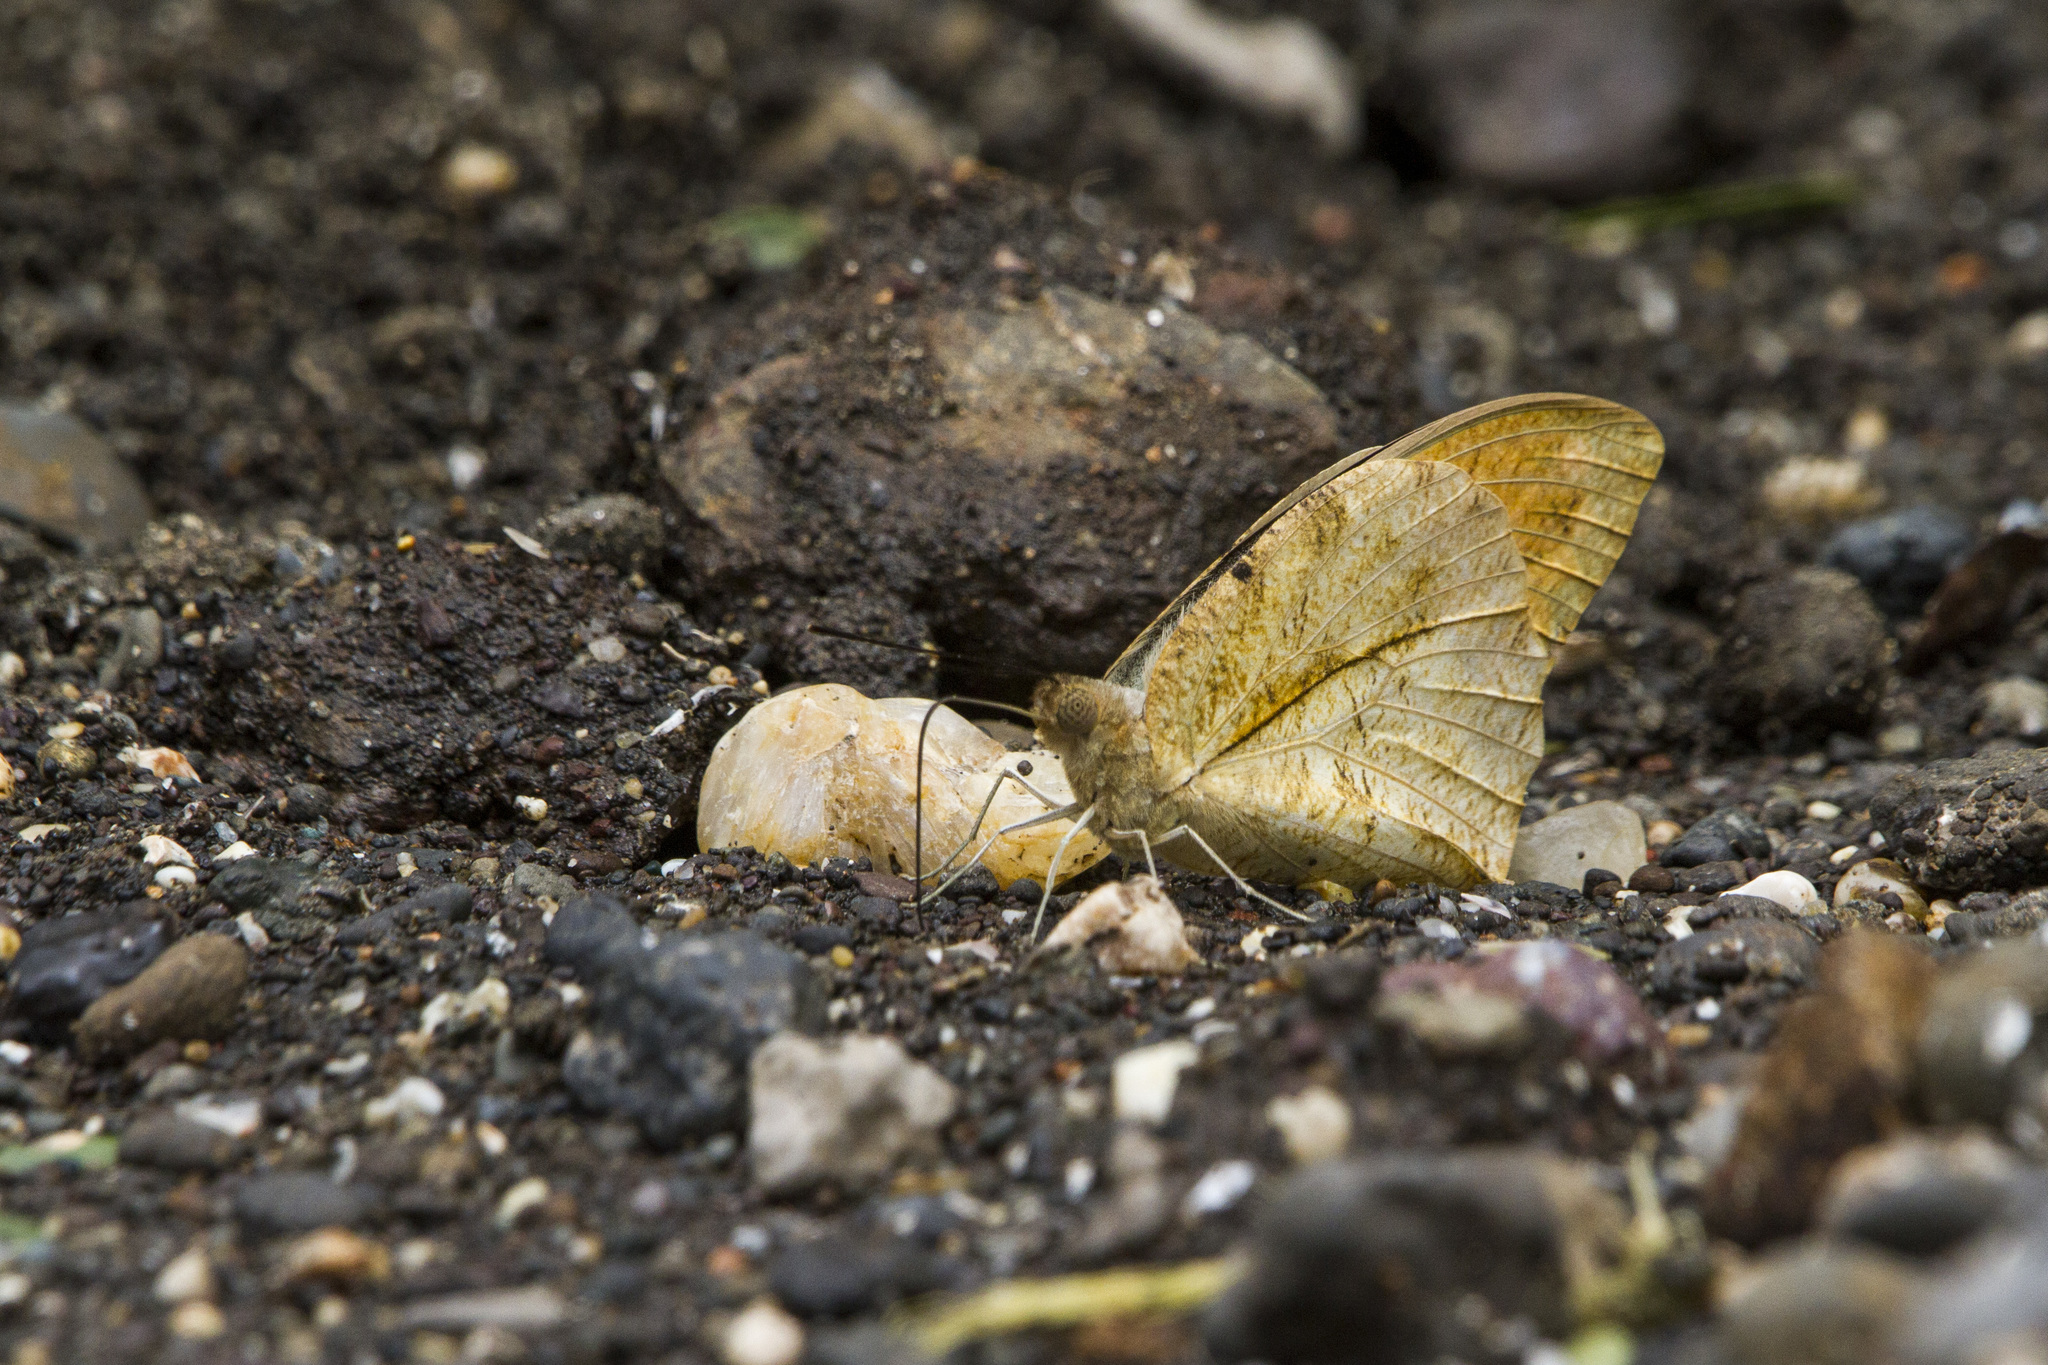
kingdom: Animalia
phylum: Arthropoda
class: Insecta
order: Lepidoptera
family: Pieridae
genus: Hebomoia
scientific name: Hebomoia glaucippe
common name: Great orange tip
